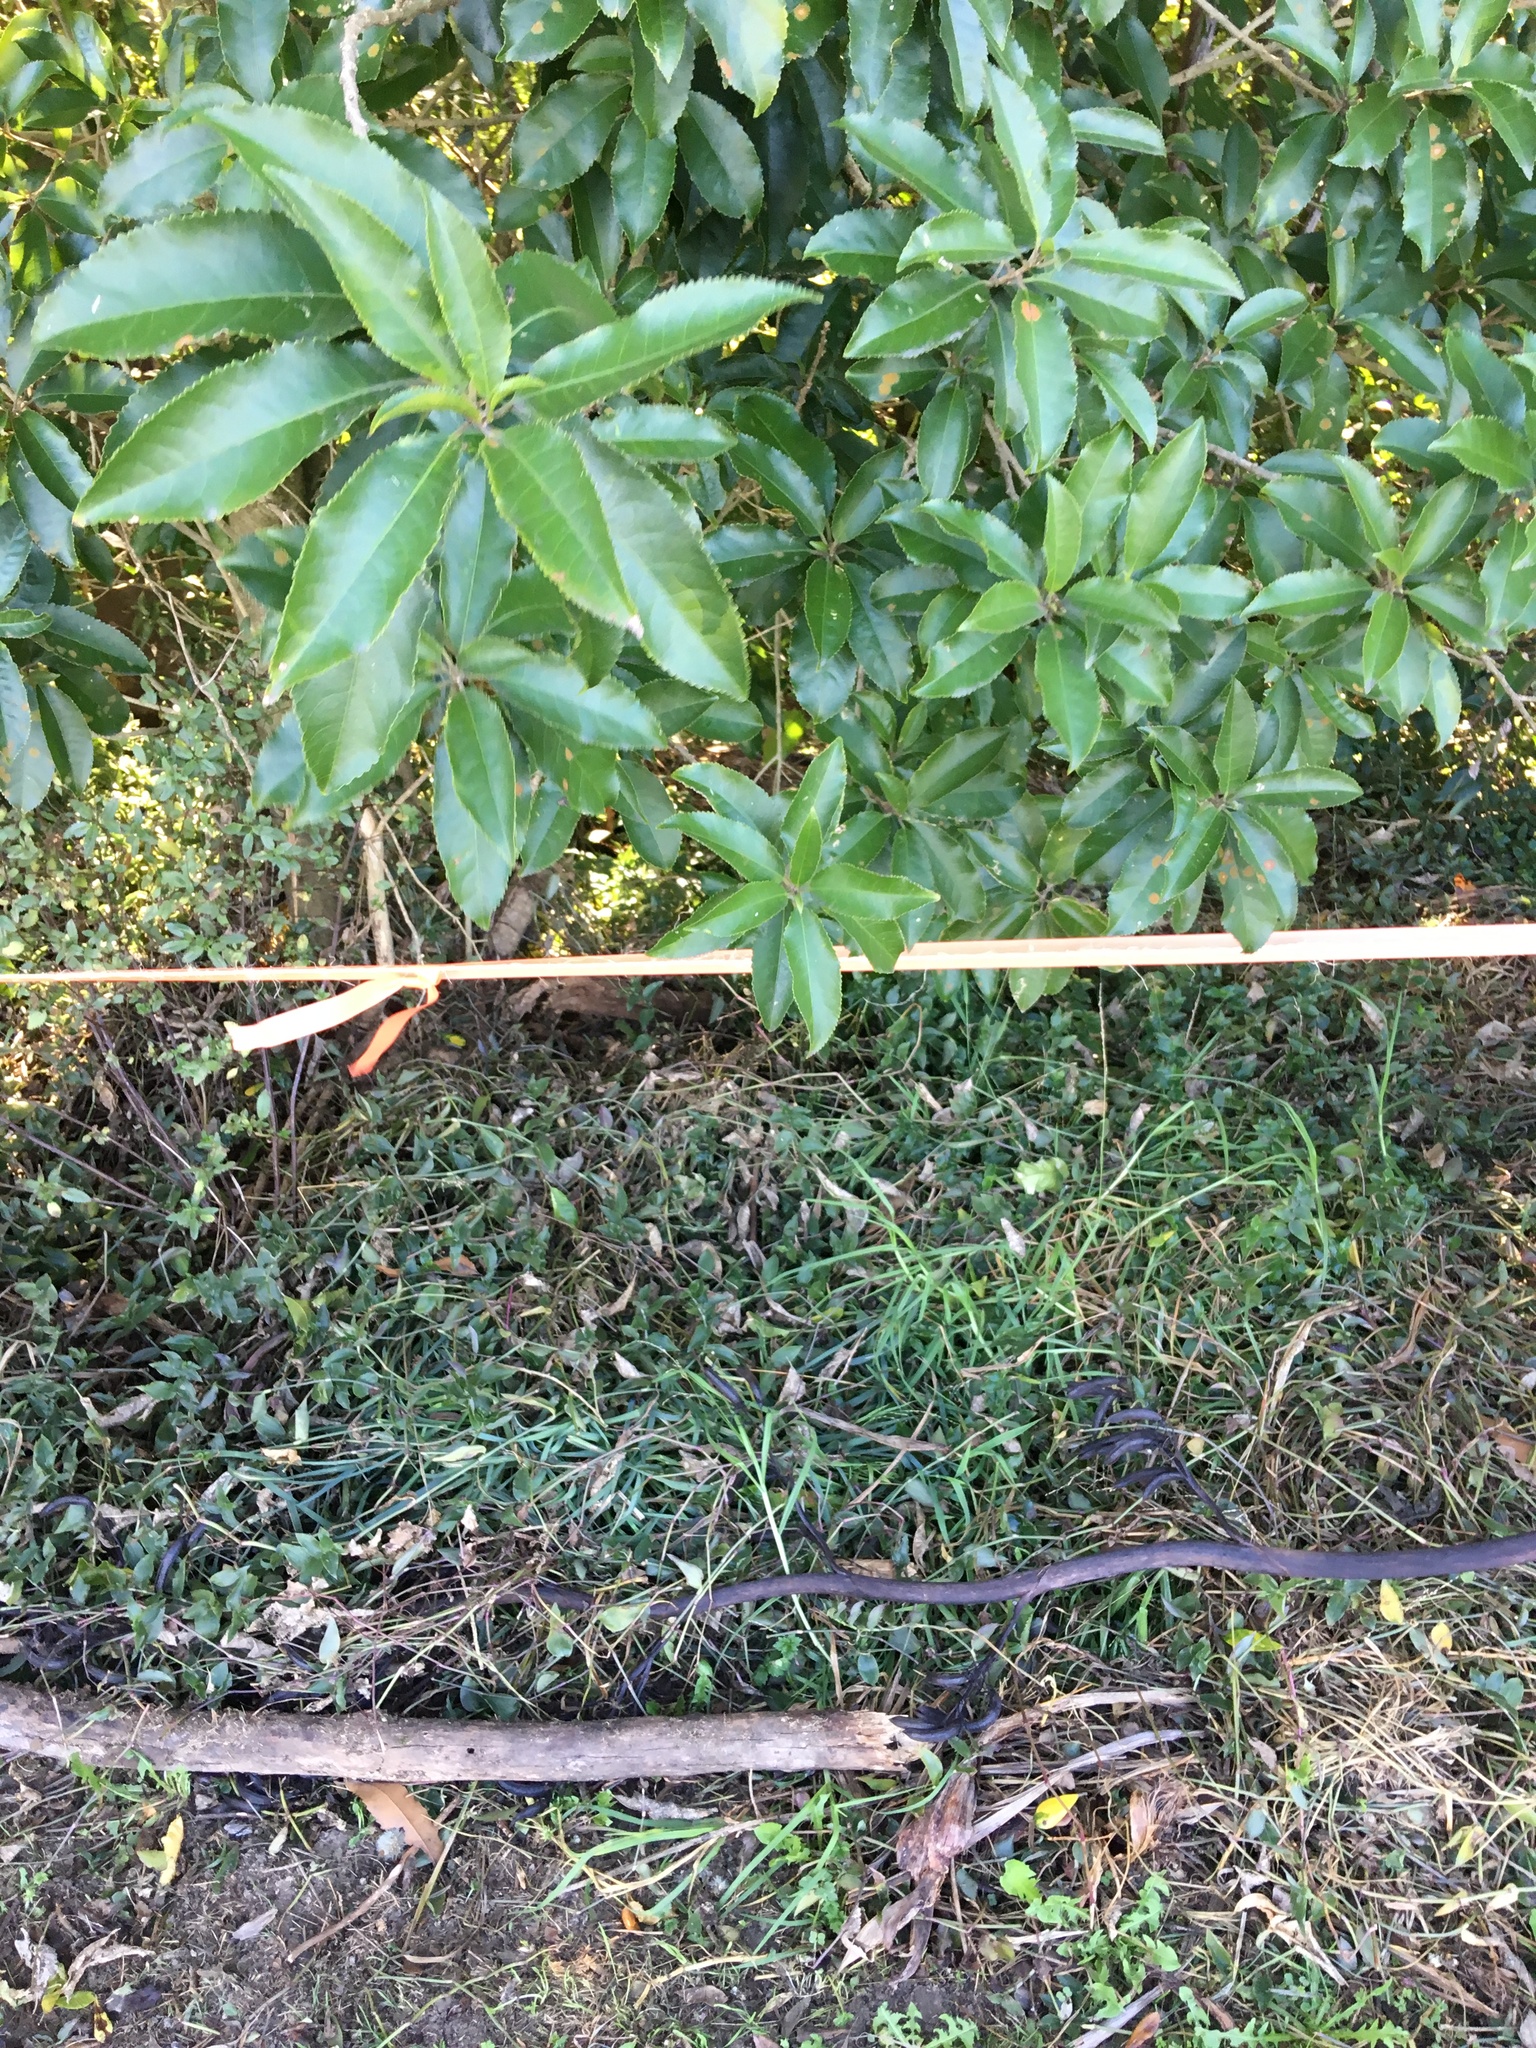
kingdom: Plantae
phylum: Tracheophyta
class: Magnoliopsida
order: Malpighiales
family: Violaceae
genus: Melicytus
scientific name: Melicytus ramiflorus
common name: Mahoe
